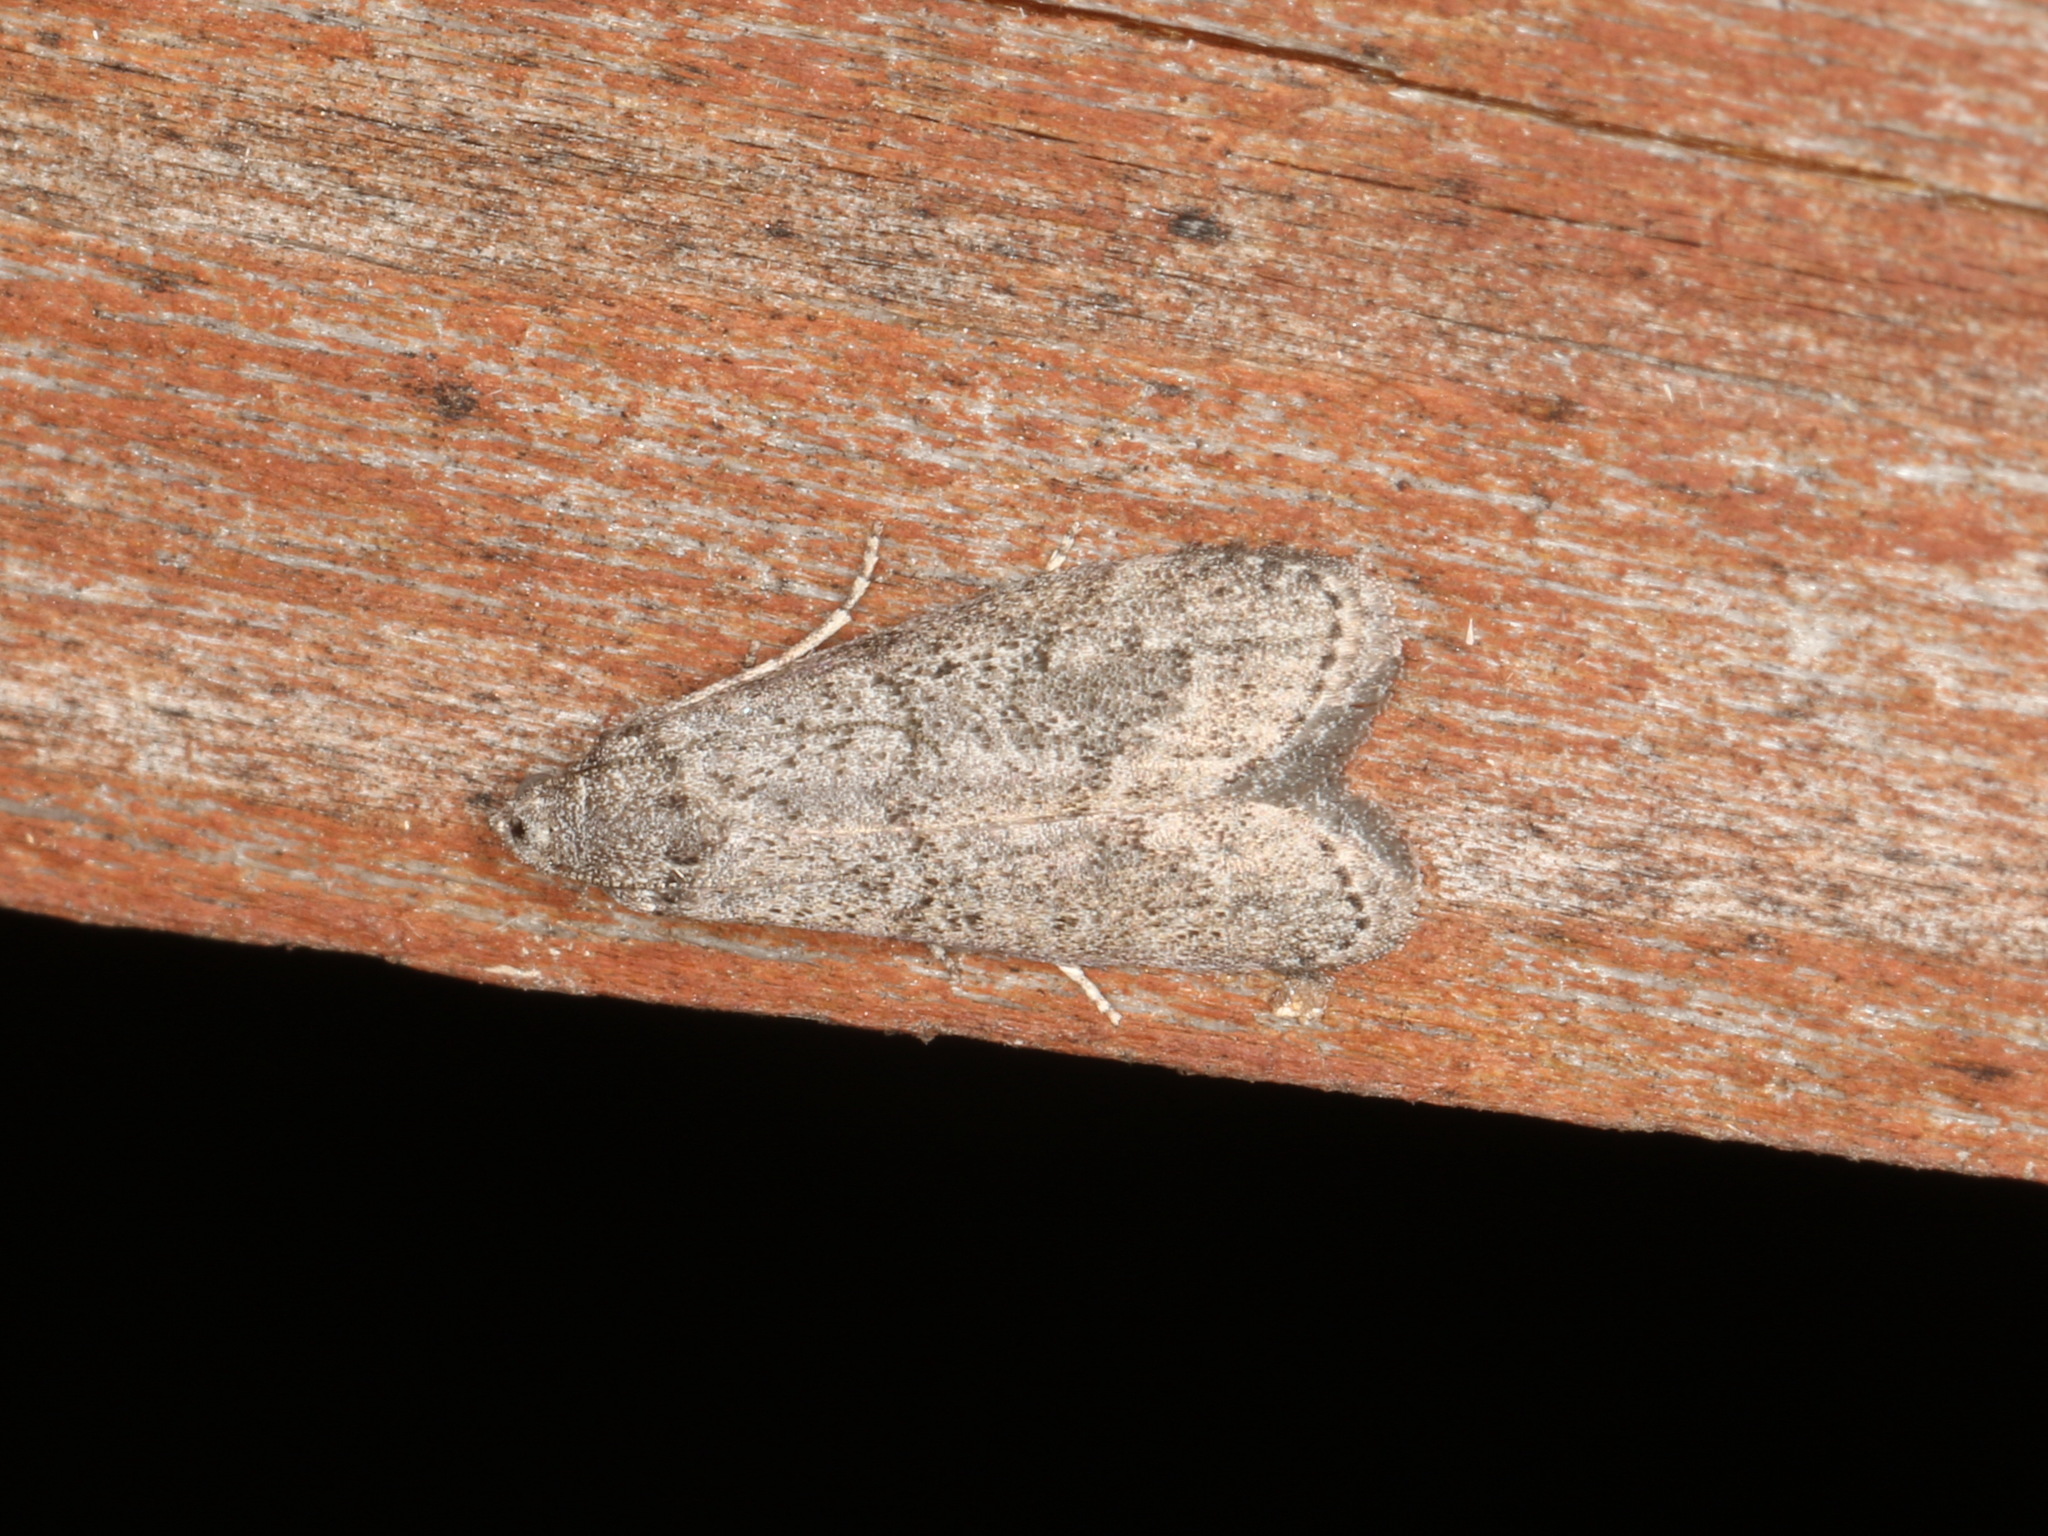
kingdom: Animalia
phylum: Arthropoda
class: Insecta
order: Lepidoptera
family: Pyralidae
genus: Heteromicta
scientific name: Heteromicta pachytera
